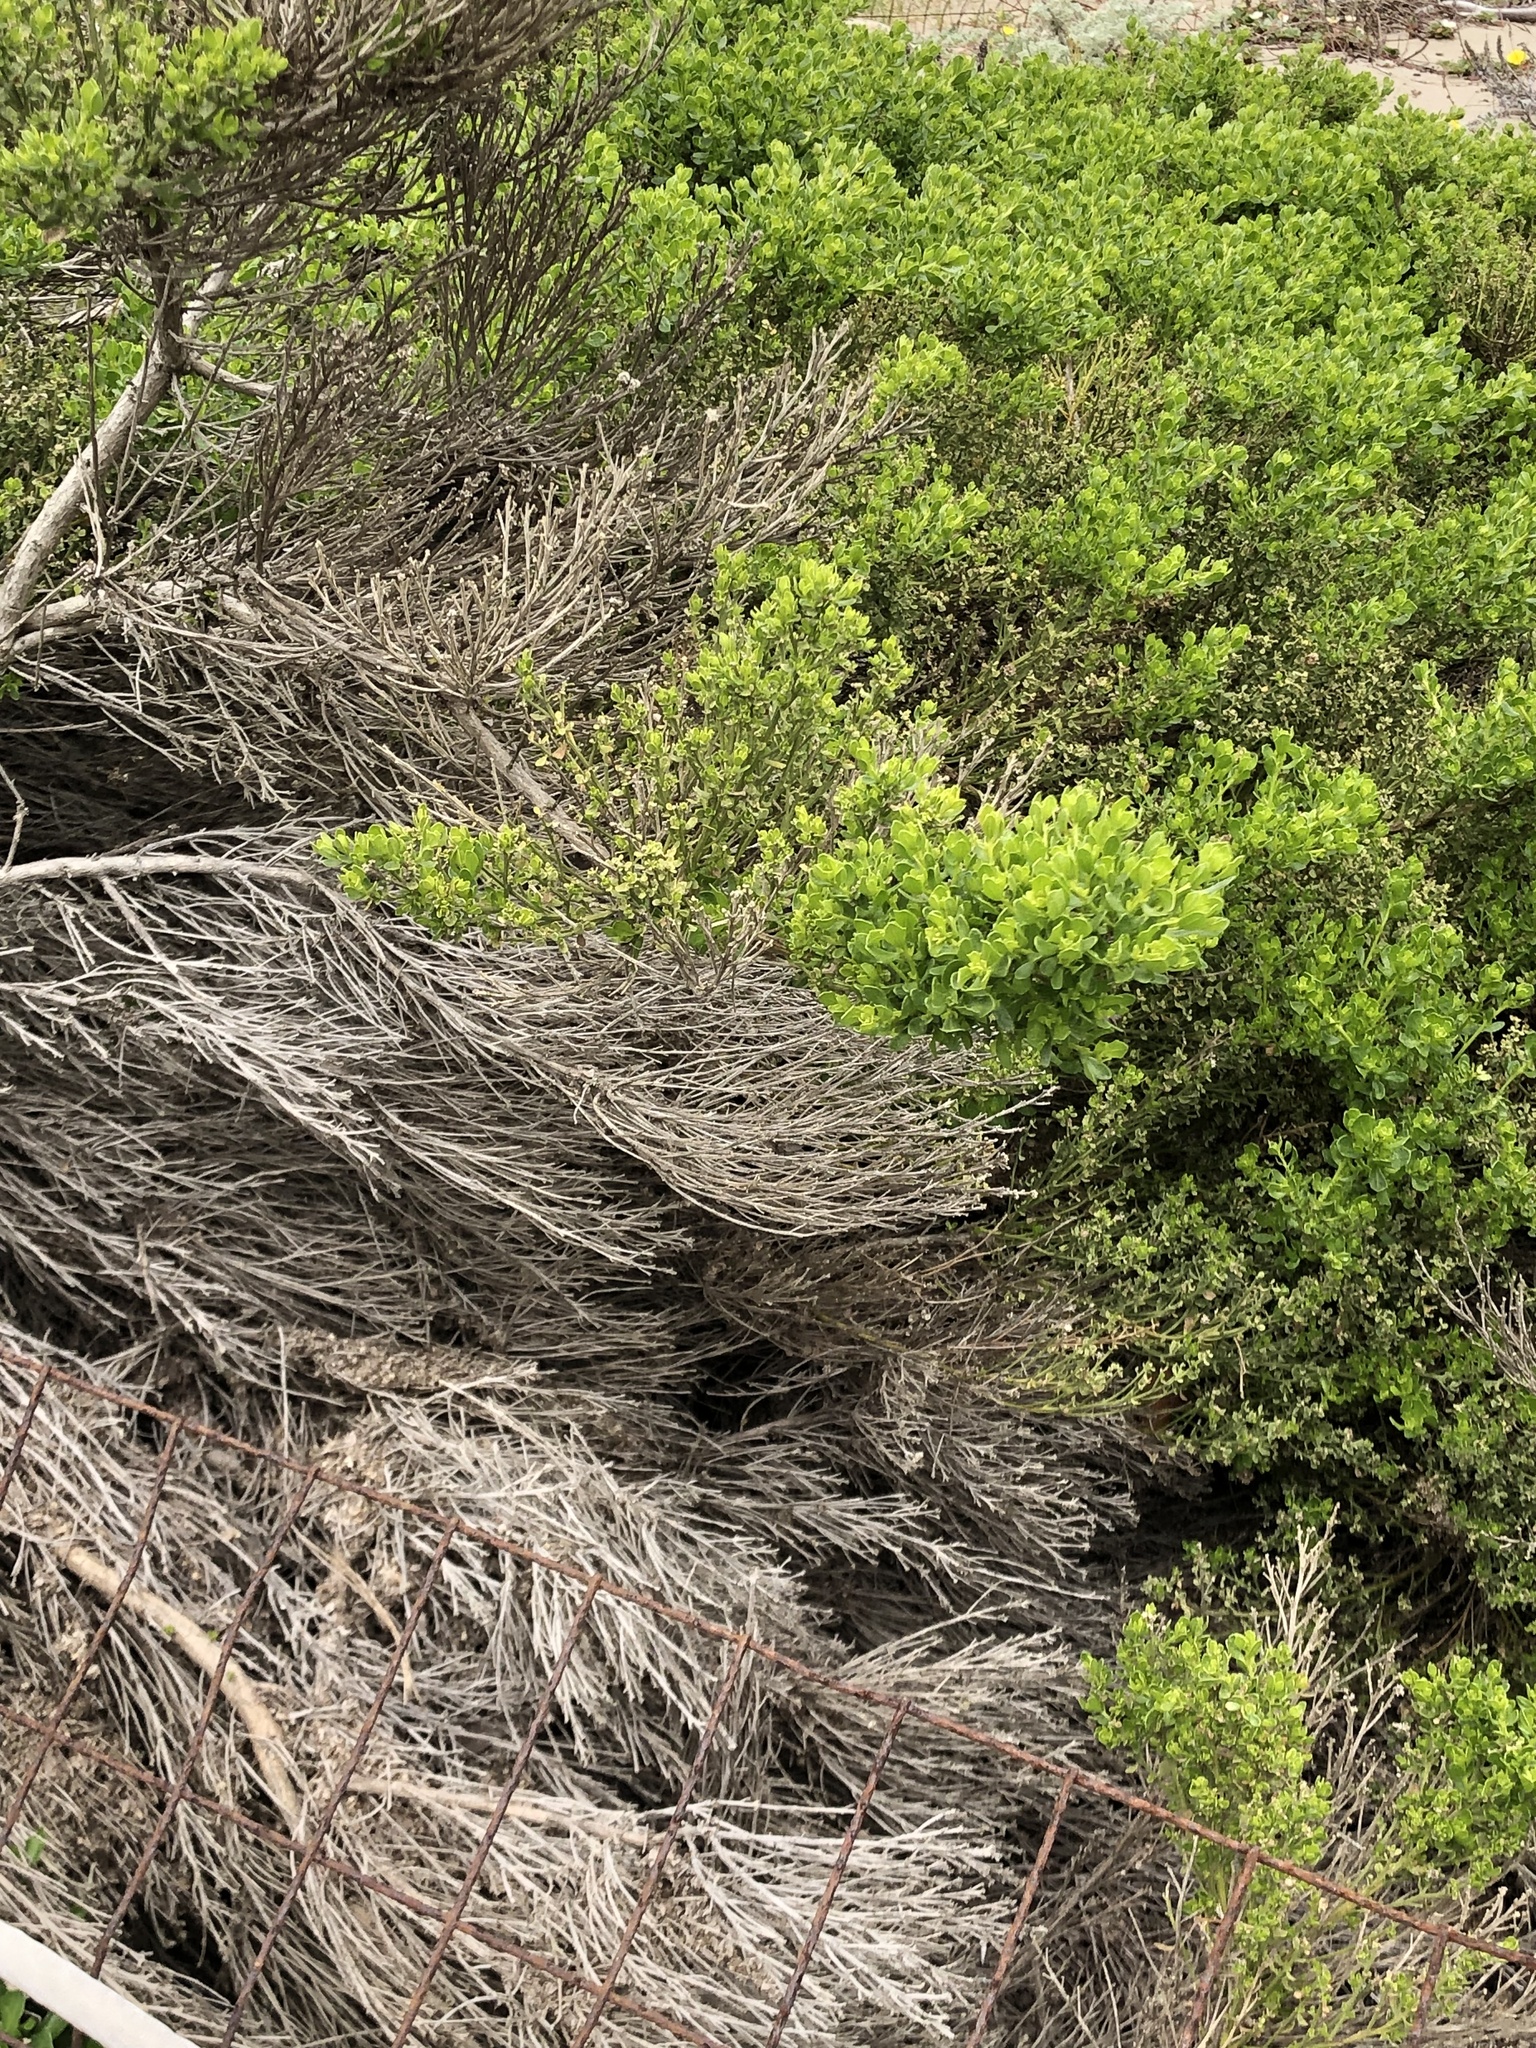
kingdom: Plantae
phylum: Tracheophyta
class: Magnoliopsida
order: Asterales
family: Asteraceae
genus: Baccharis
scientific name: Baccharis pilularis
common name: Coyotebrush
